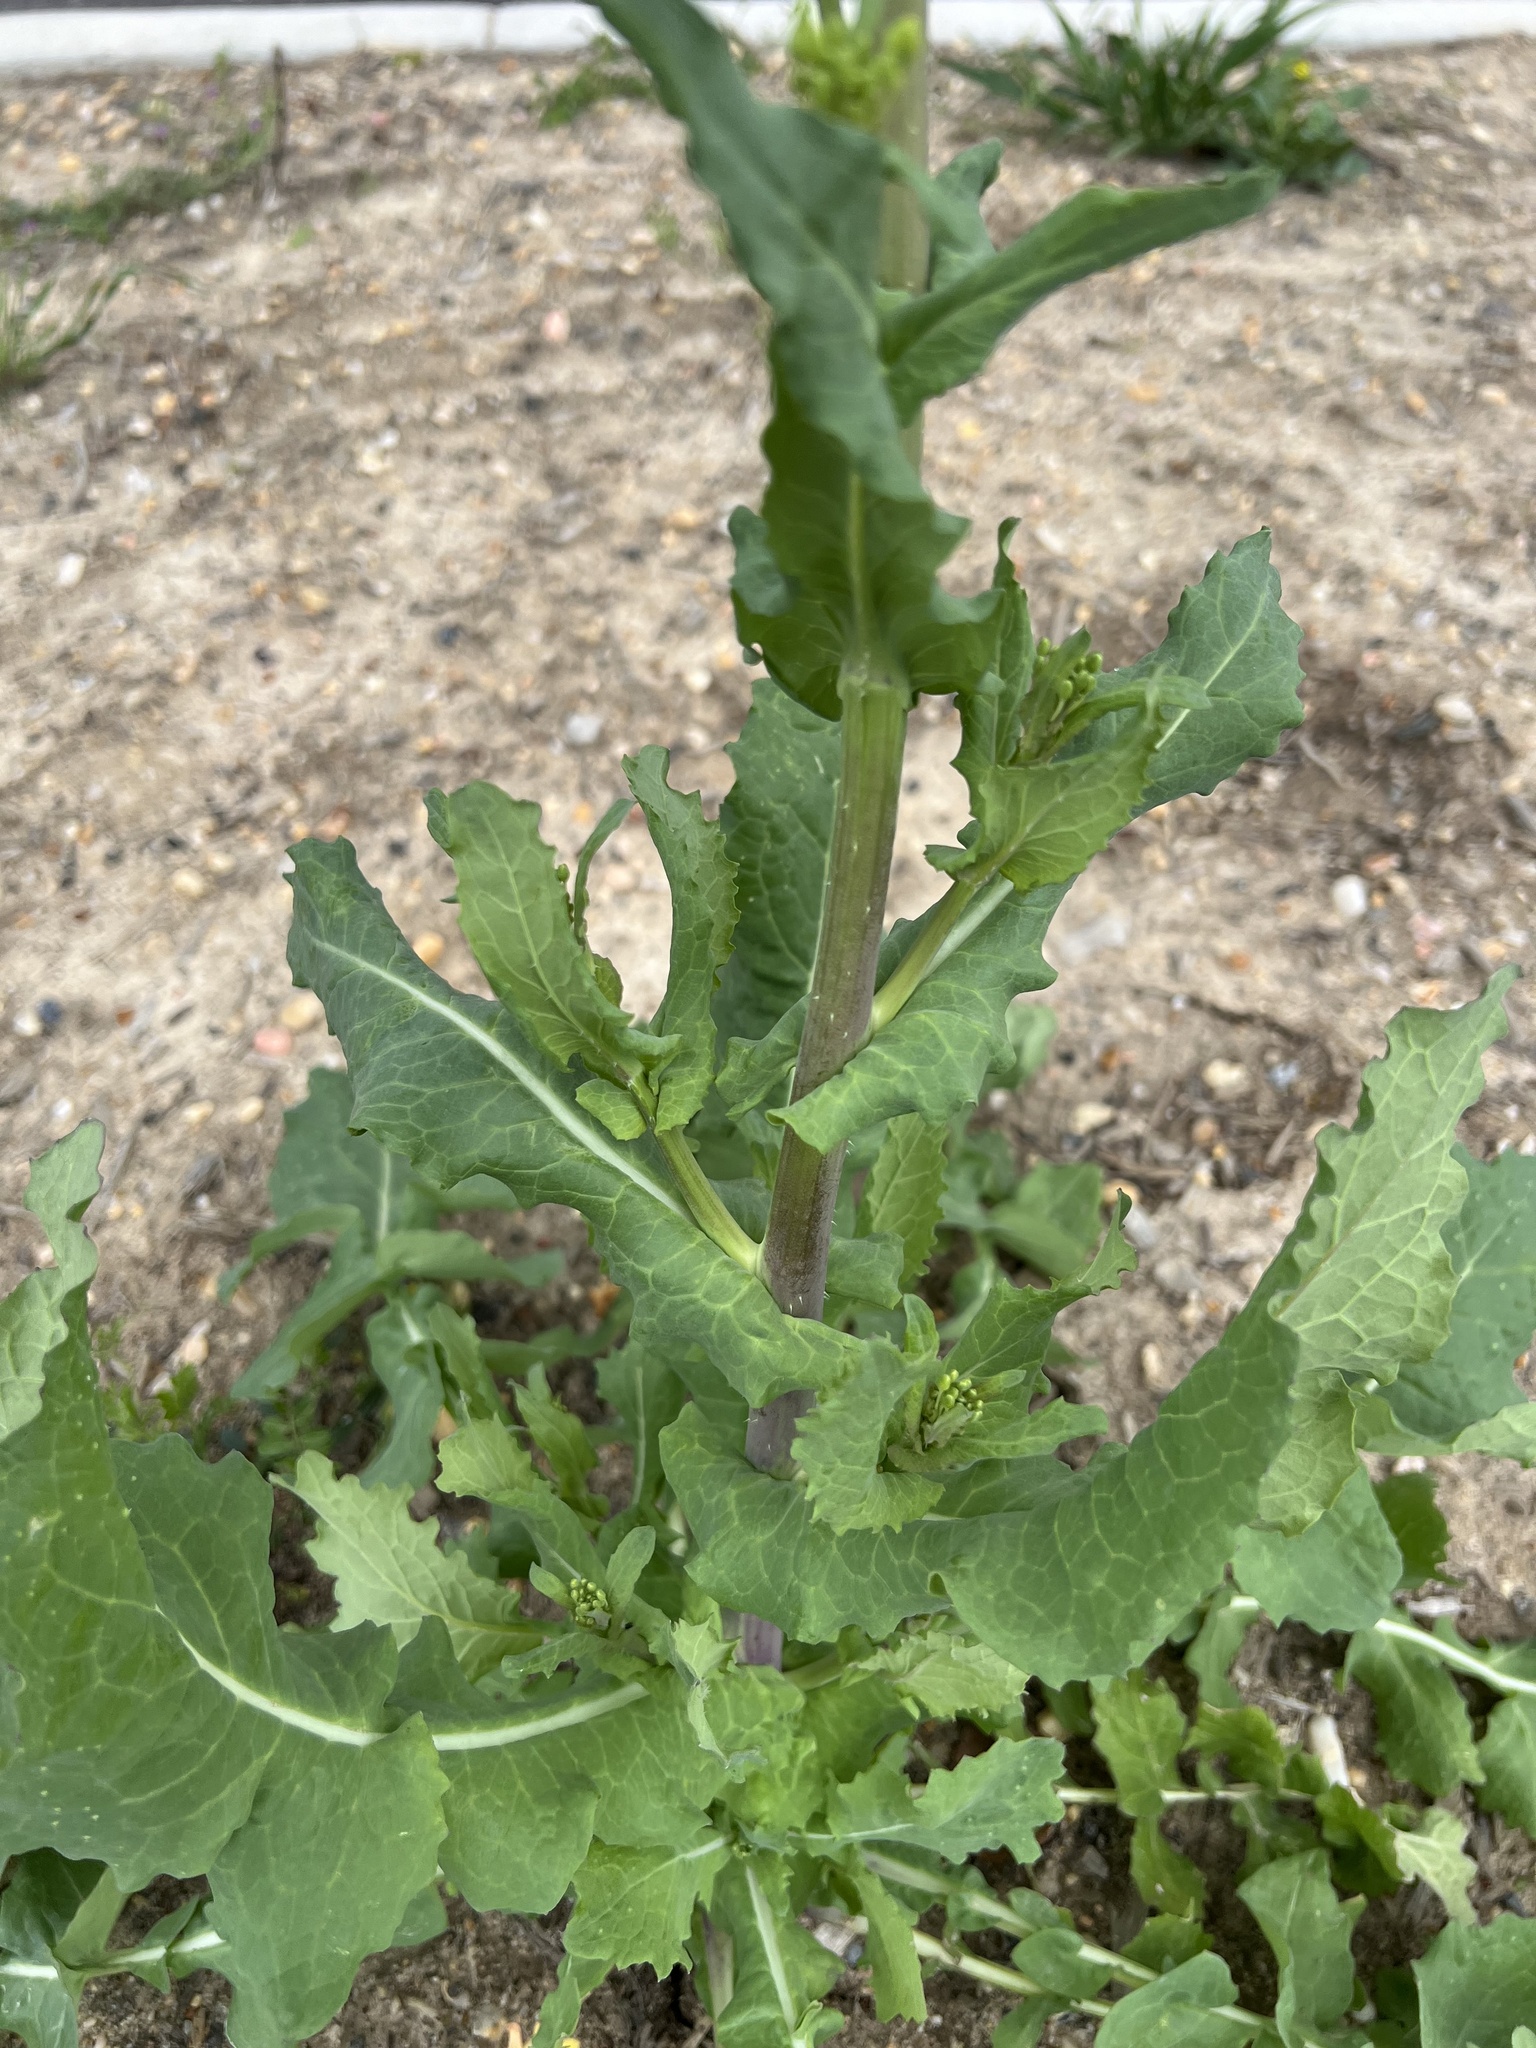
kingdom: Plantae
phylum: Tracheophyta
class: Magnoliopsida
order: Brassicales
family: Brassicaceae
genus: Brassica
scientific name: Brassica rapa
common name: Field mustard
